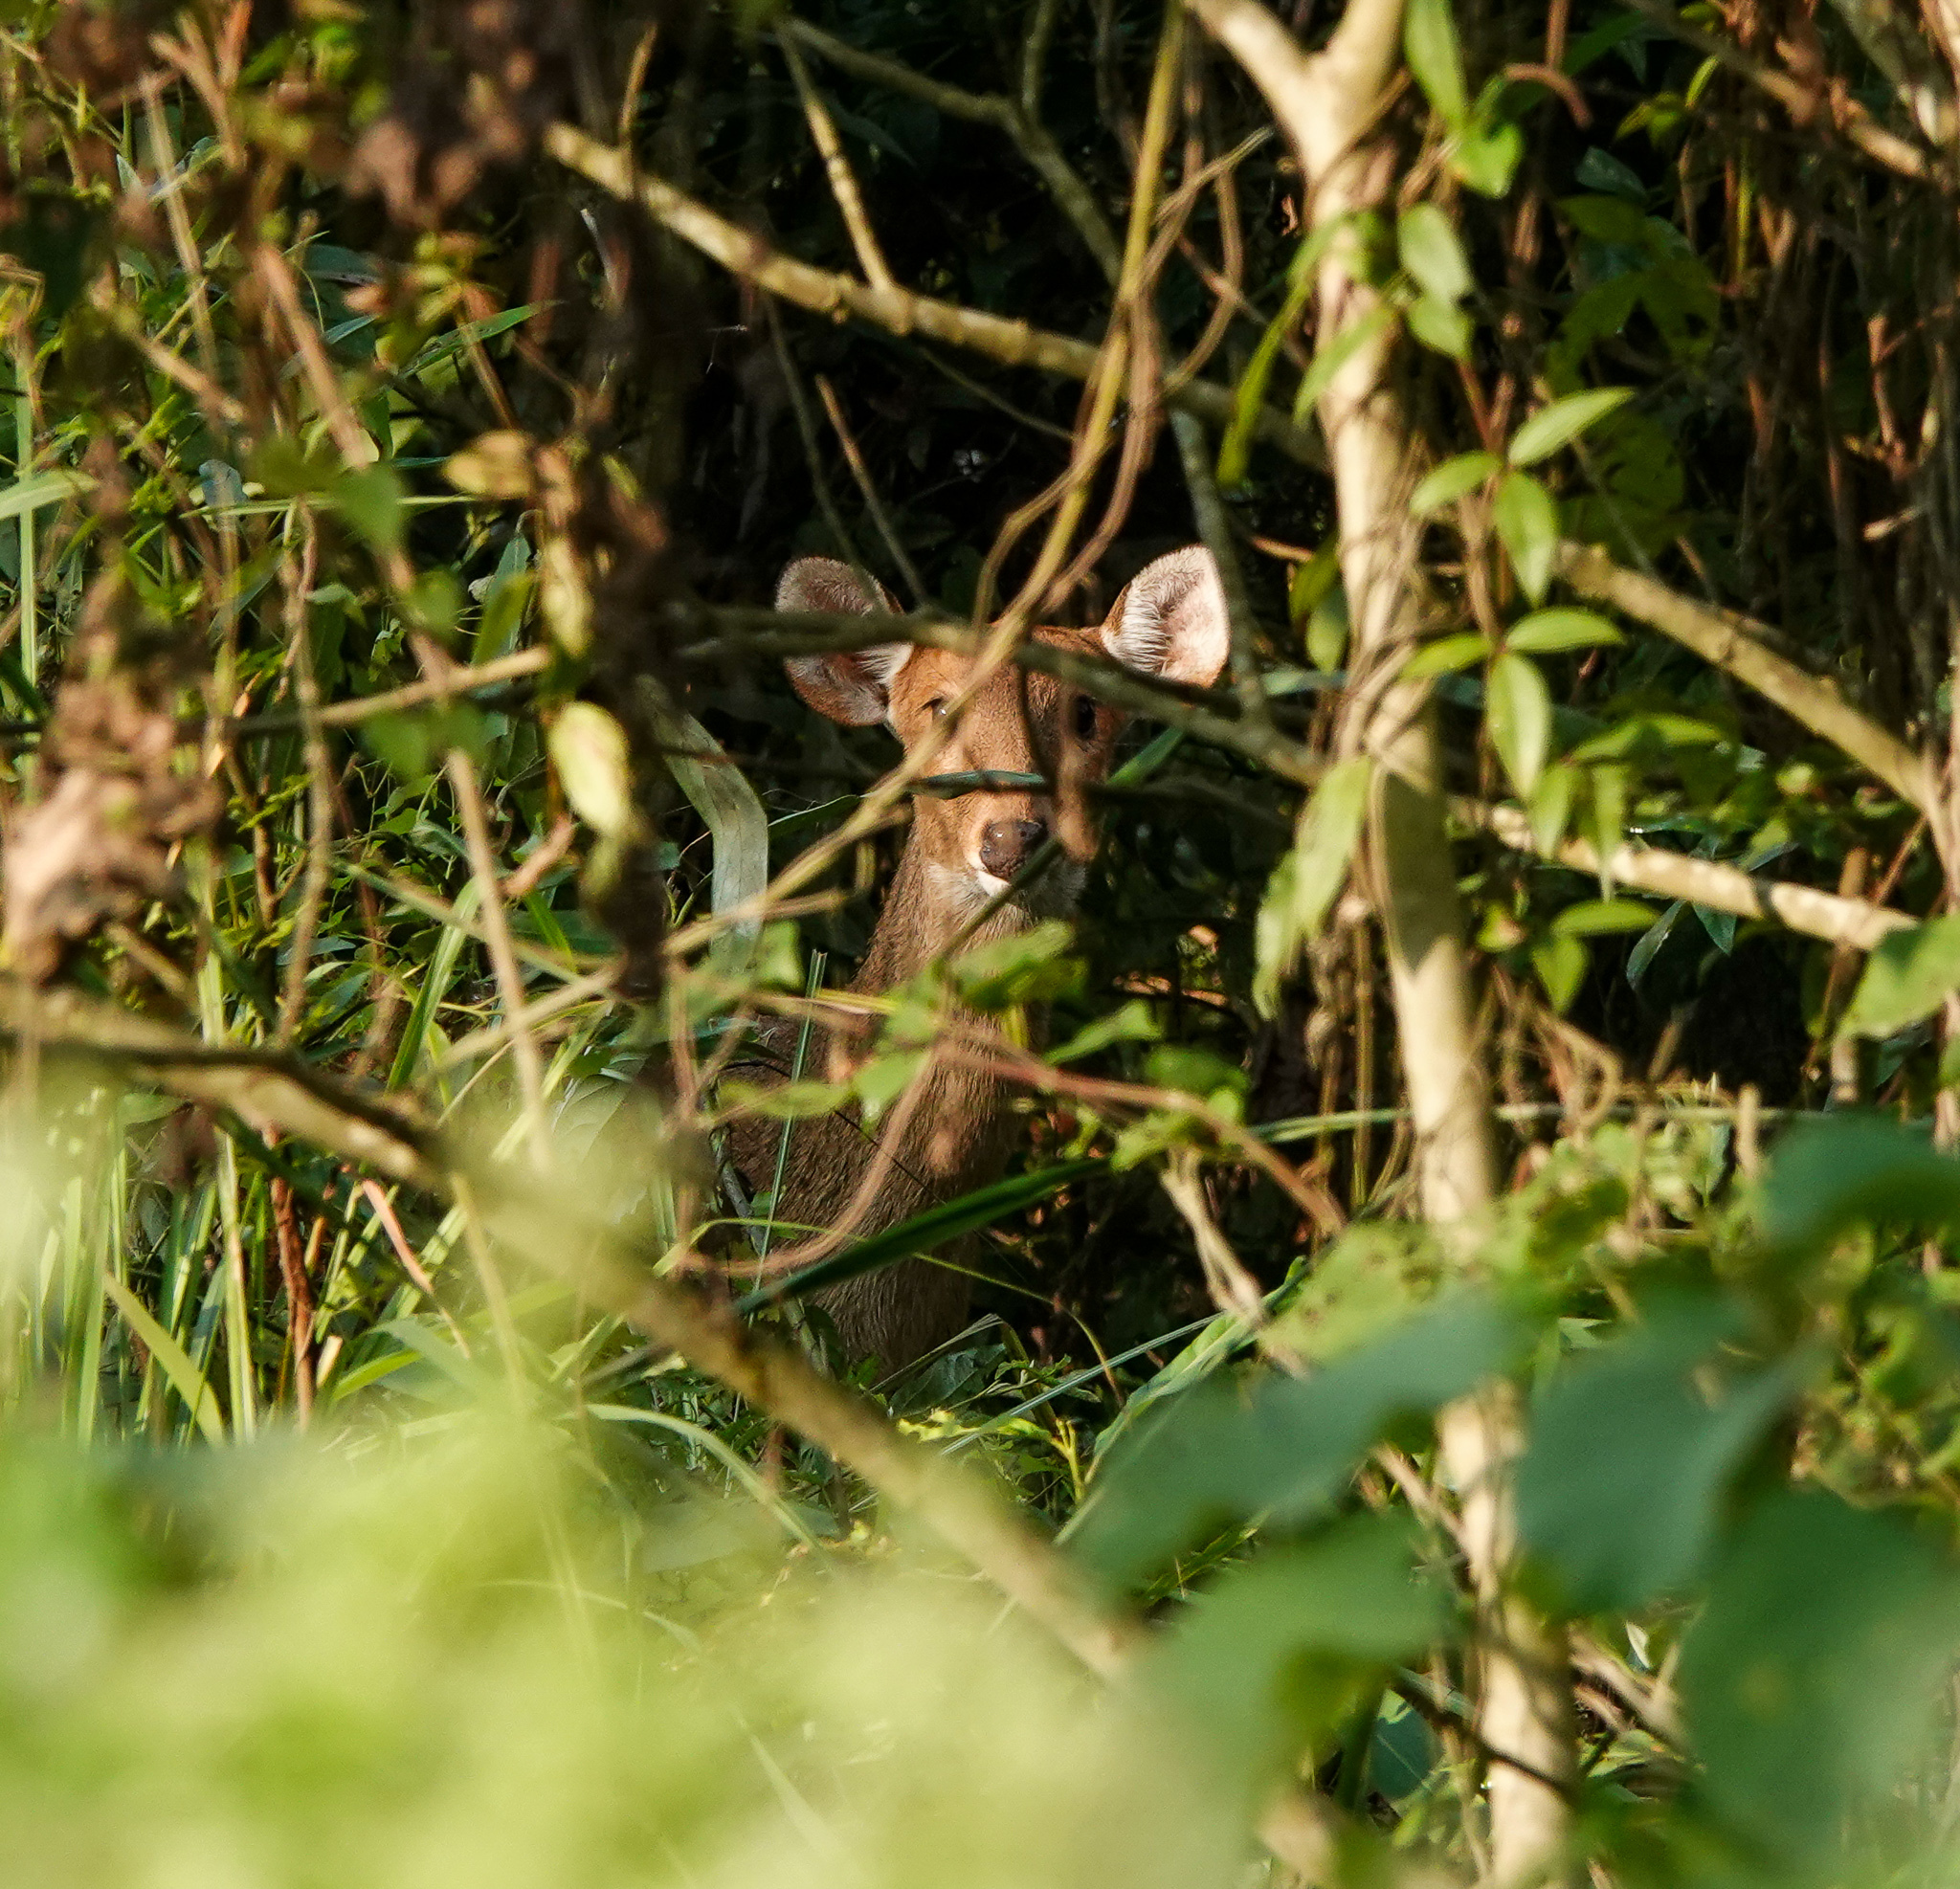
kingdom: Animalia
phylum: Chordata
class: Mammalia
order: Artiodactyla
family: Cervidae
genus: Axis
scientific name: Axis porcinus
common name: Hog deer
